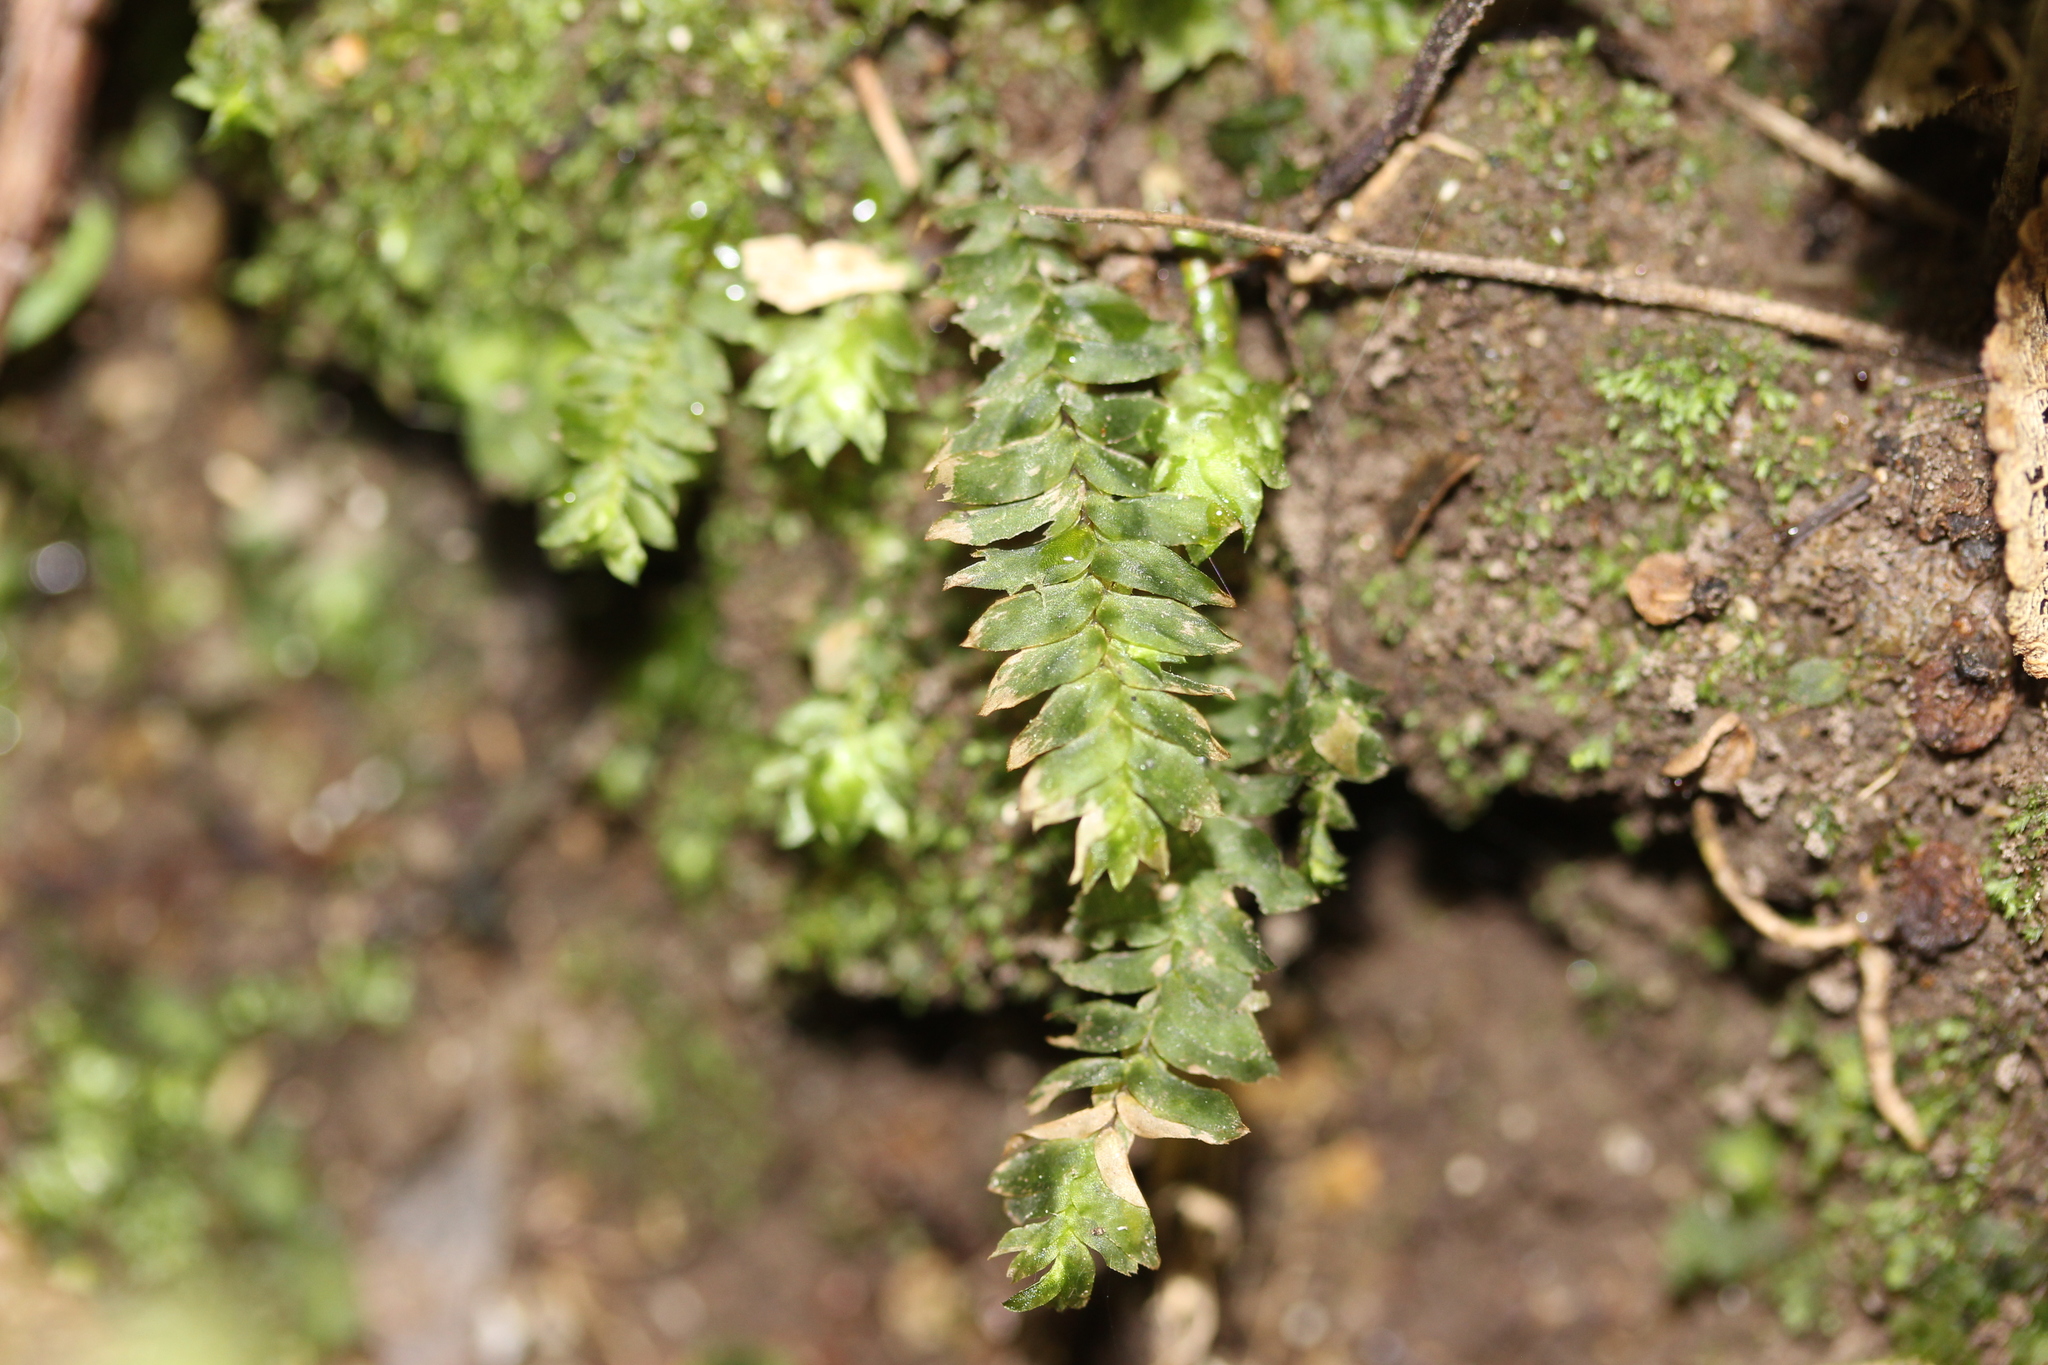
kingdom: Plantae
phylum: Bryophyta
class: Bryopsida
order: Hypopterygiales
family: Hypopterygiaceae
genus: Cyathophorum
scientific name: Cyathophorum bulbosum
